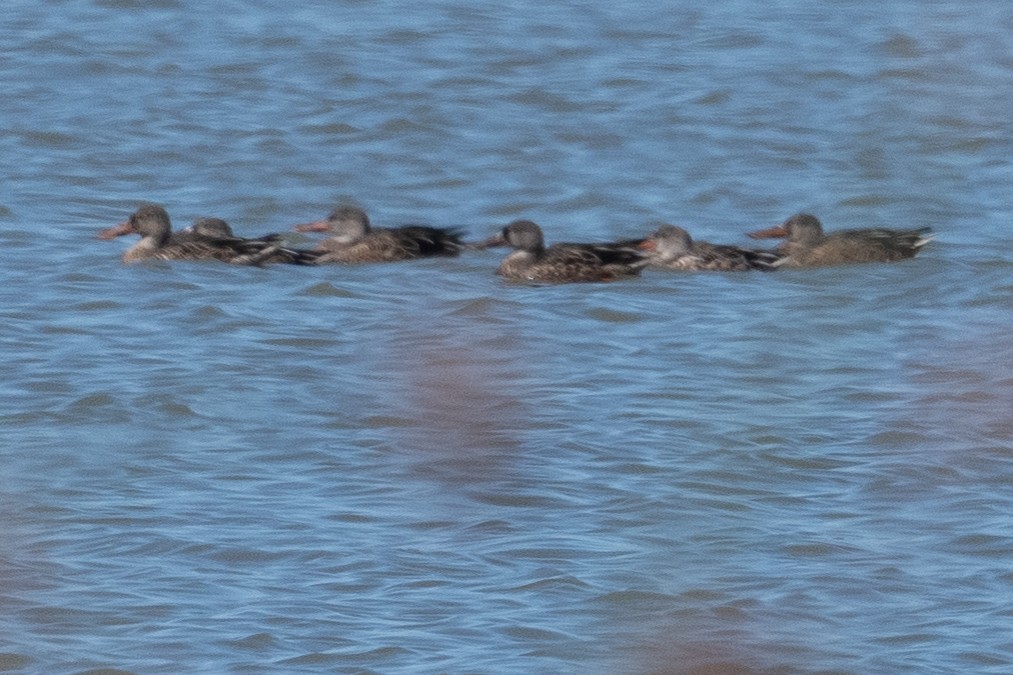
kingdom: Animalia
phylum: Chordata
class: Aves
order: Anseriformes
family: Anatidae
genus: Spatula
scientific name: Spatula clypeata
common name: Northern shoveler
